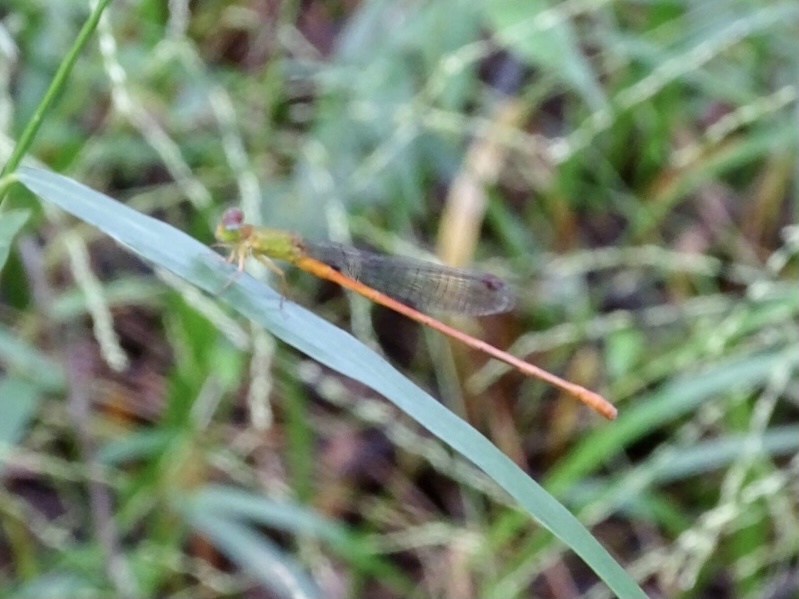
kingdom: Animalia
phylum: Arthropoda
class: Insecta
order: Odonata
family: Coenagrionidae
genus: Ceriagrion
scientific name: Ceriagrion auranticum
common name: Orange-tailed sprite
